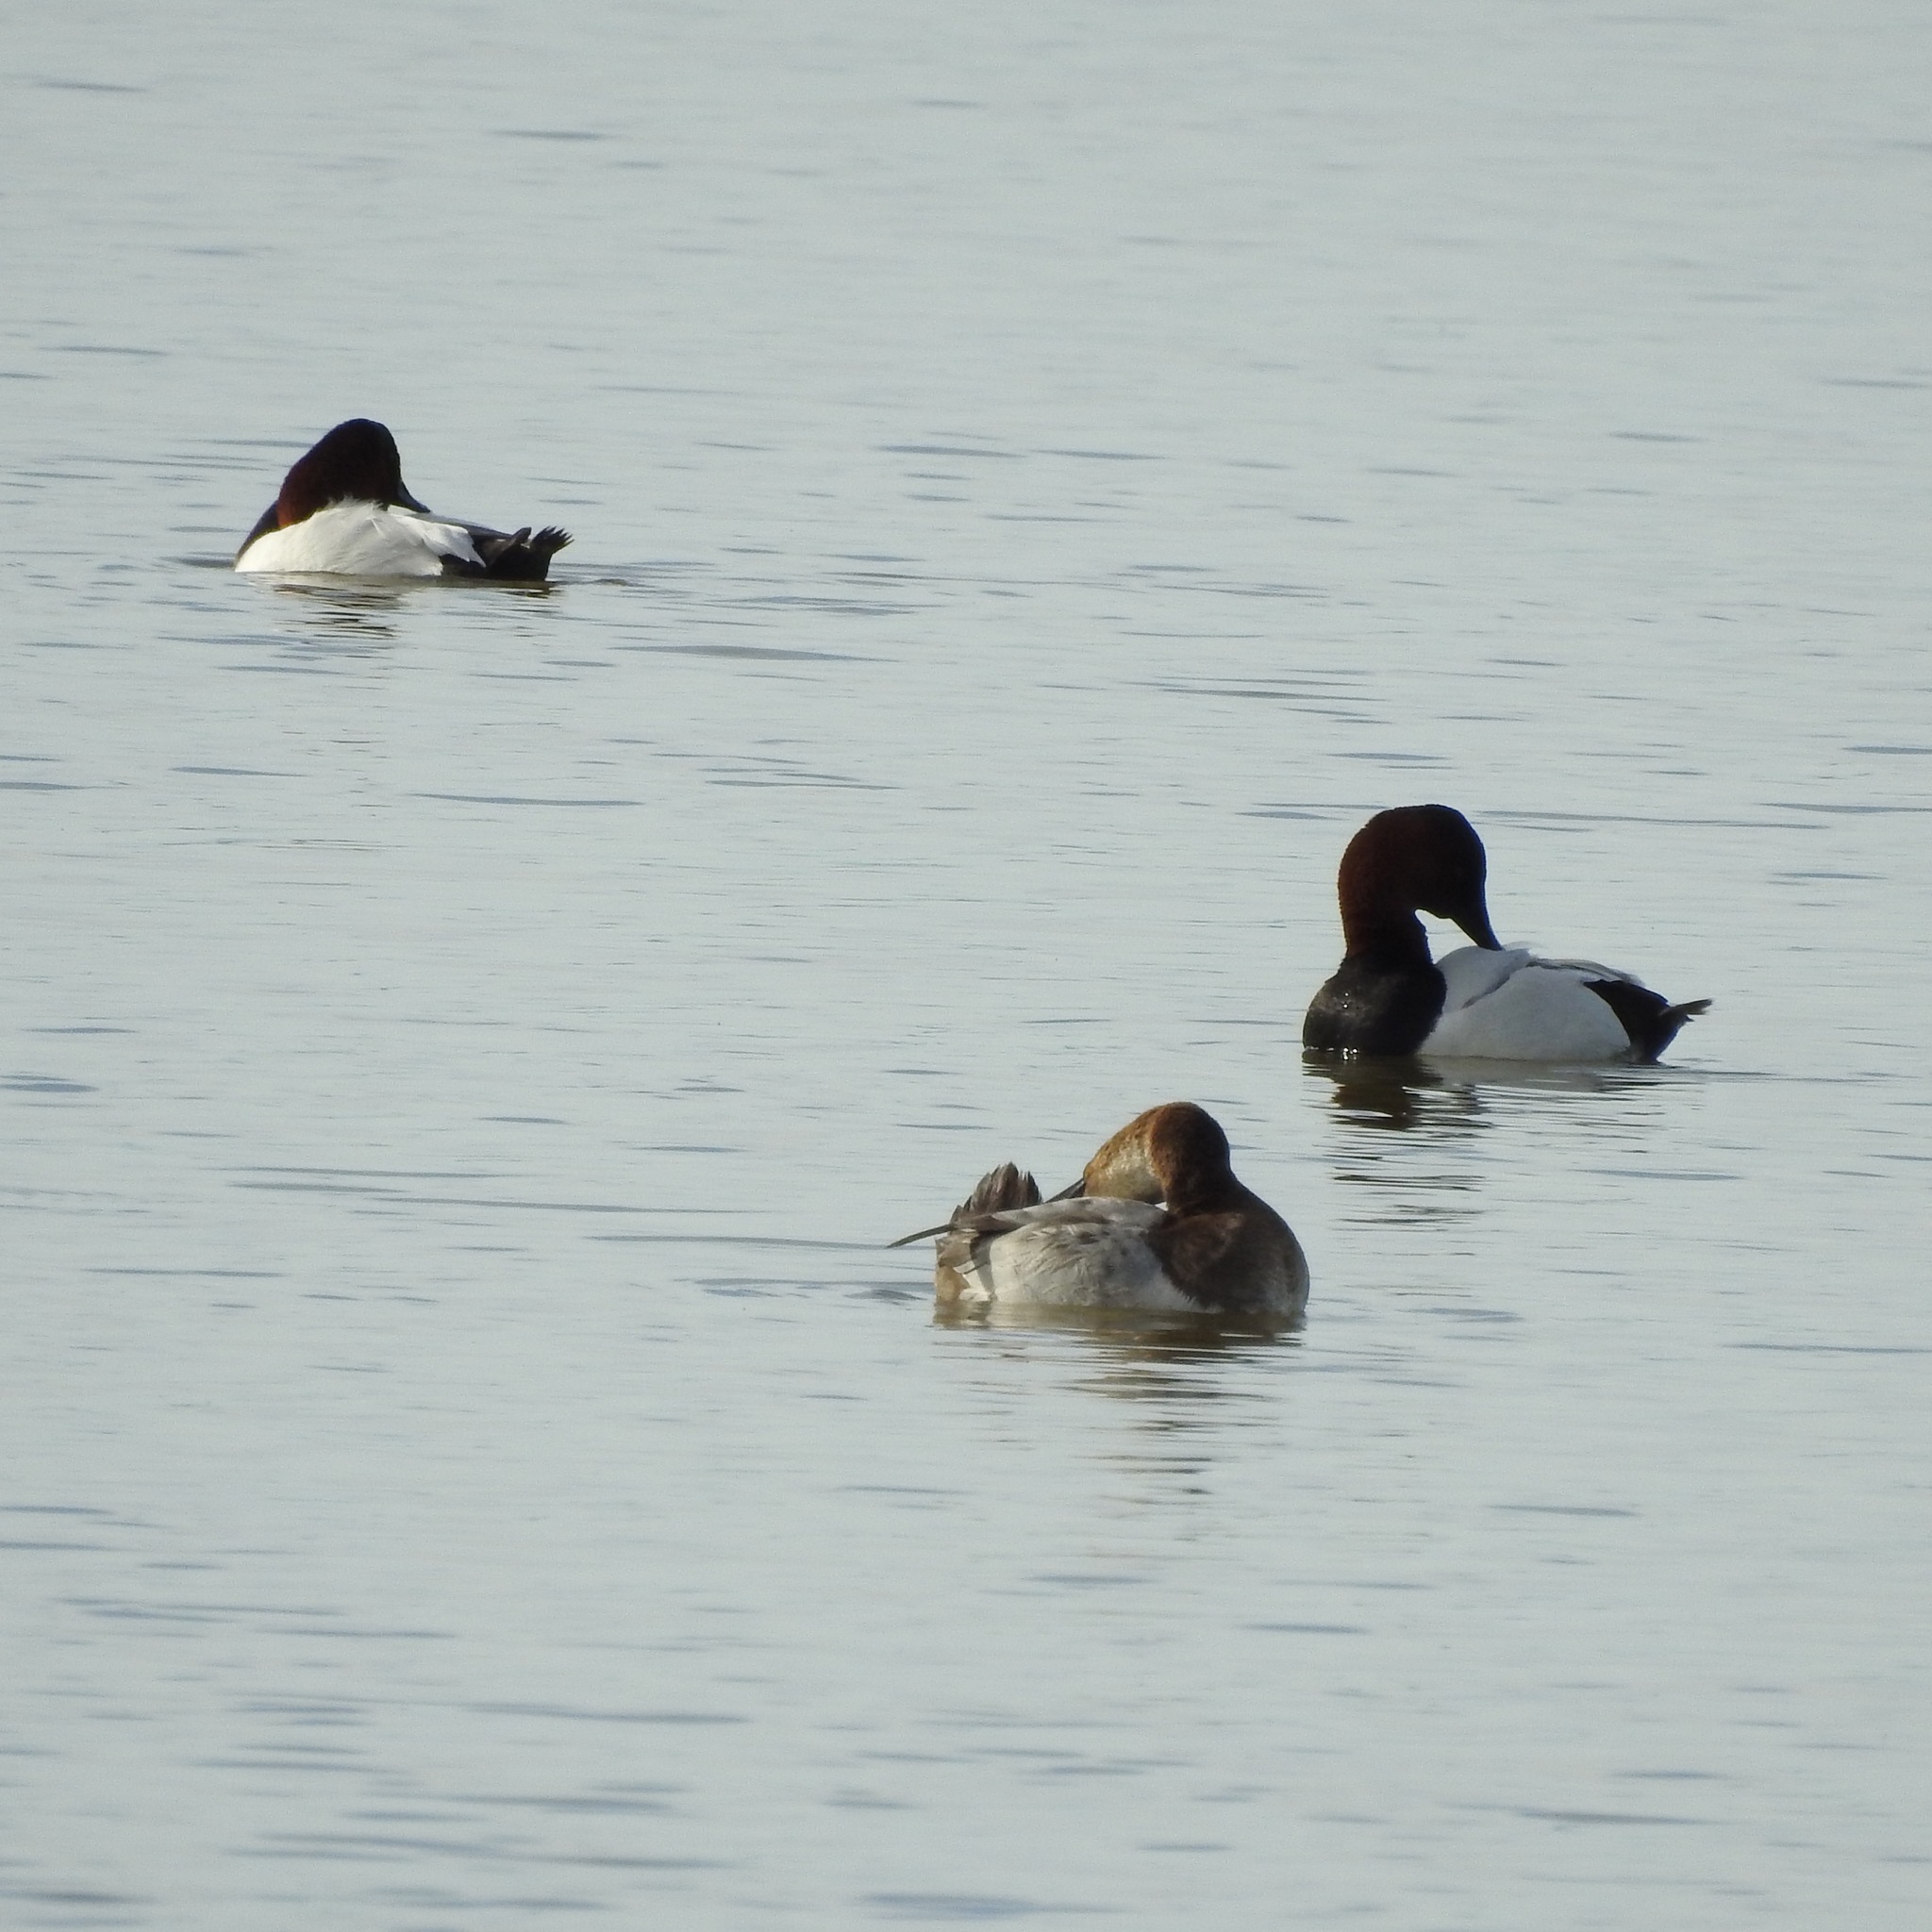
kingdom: Animalia
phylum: Chordata
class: Aves
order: Anseriformes
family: Anatidae
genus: Aythya
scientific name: Aythya valisineria
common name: Canvasback
